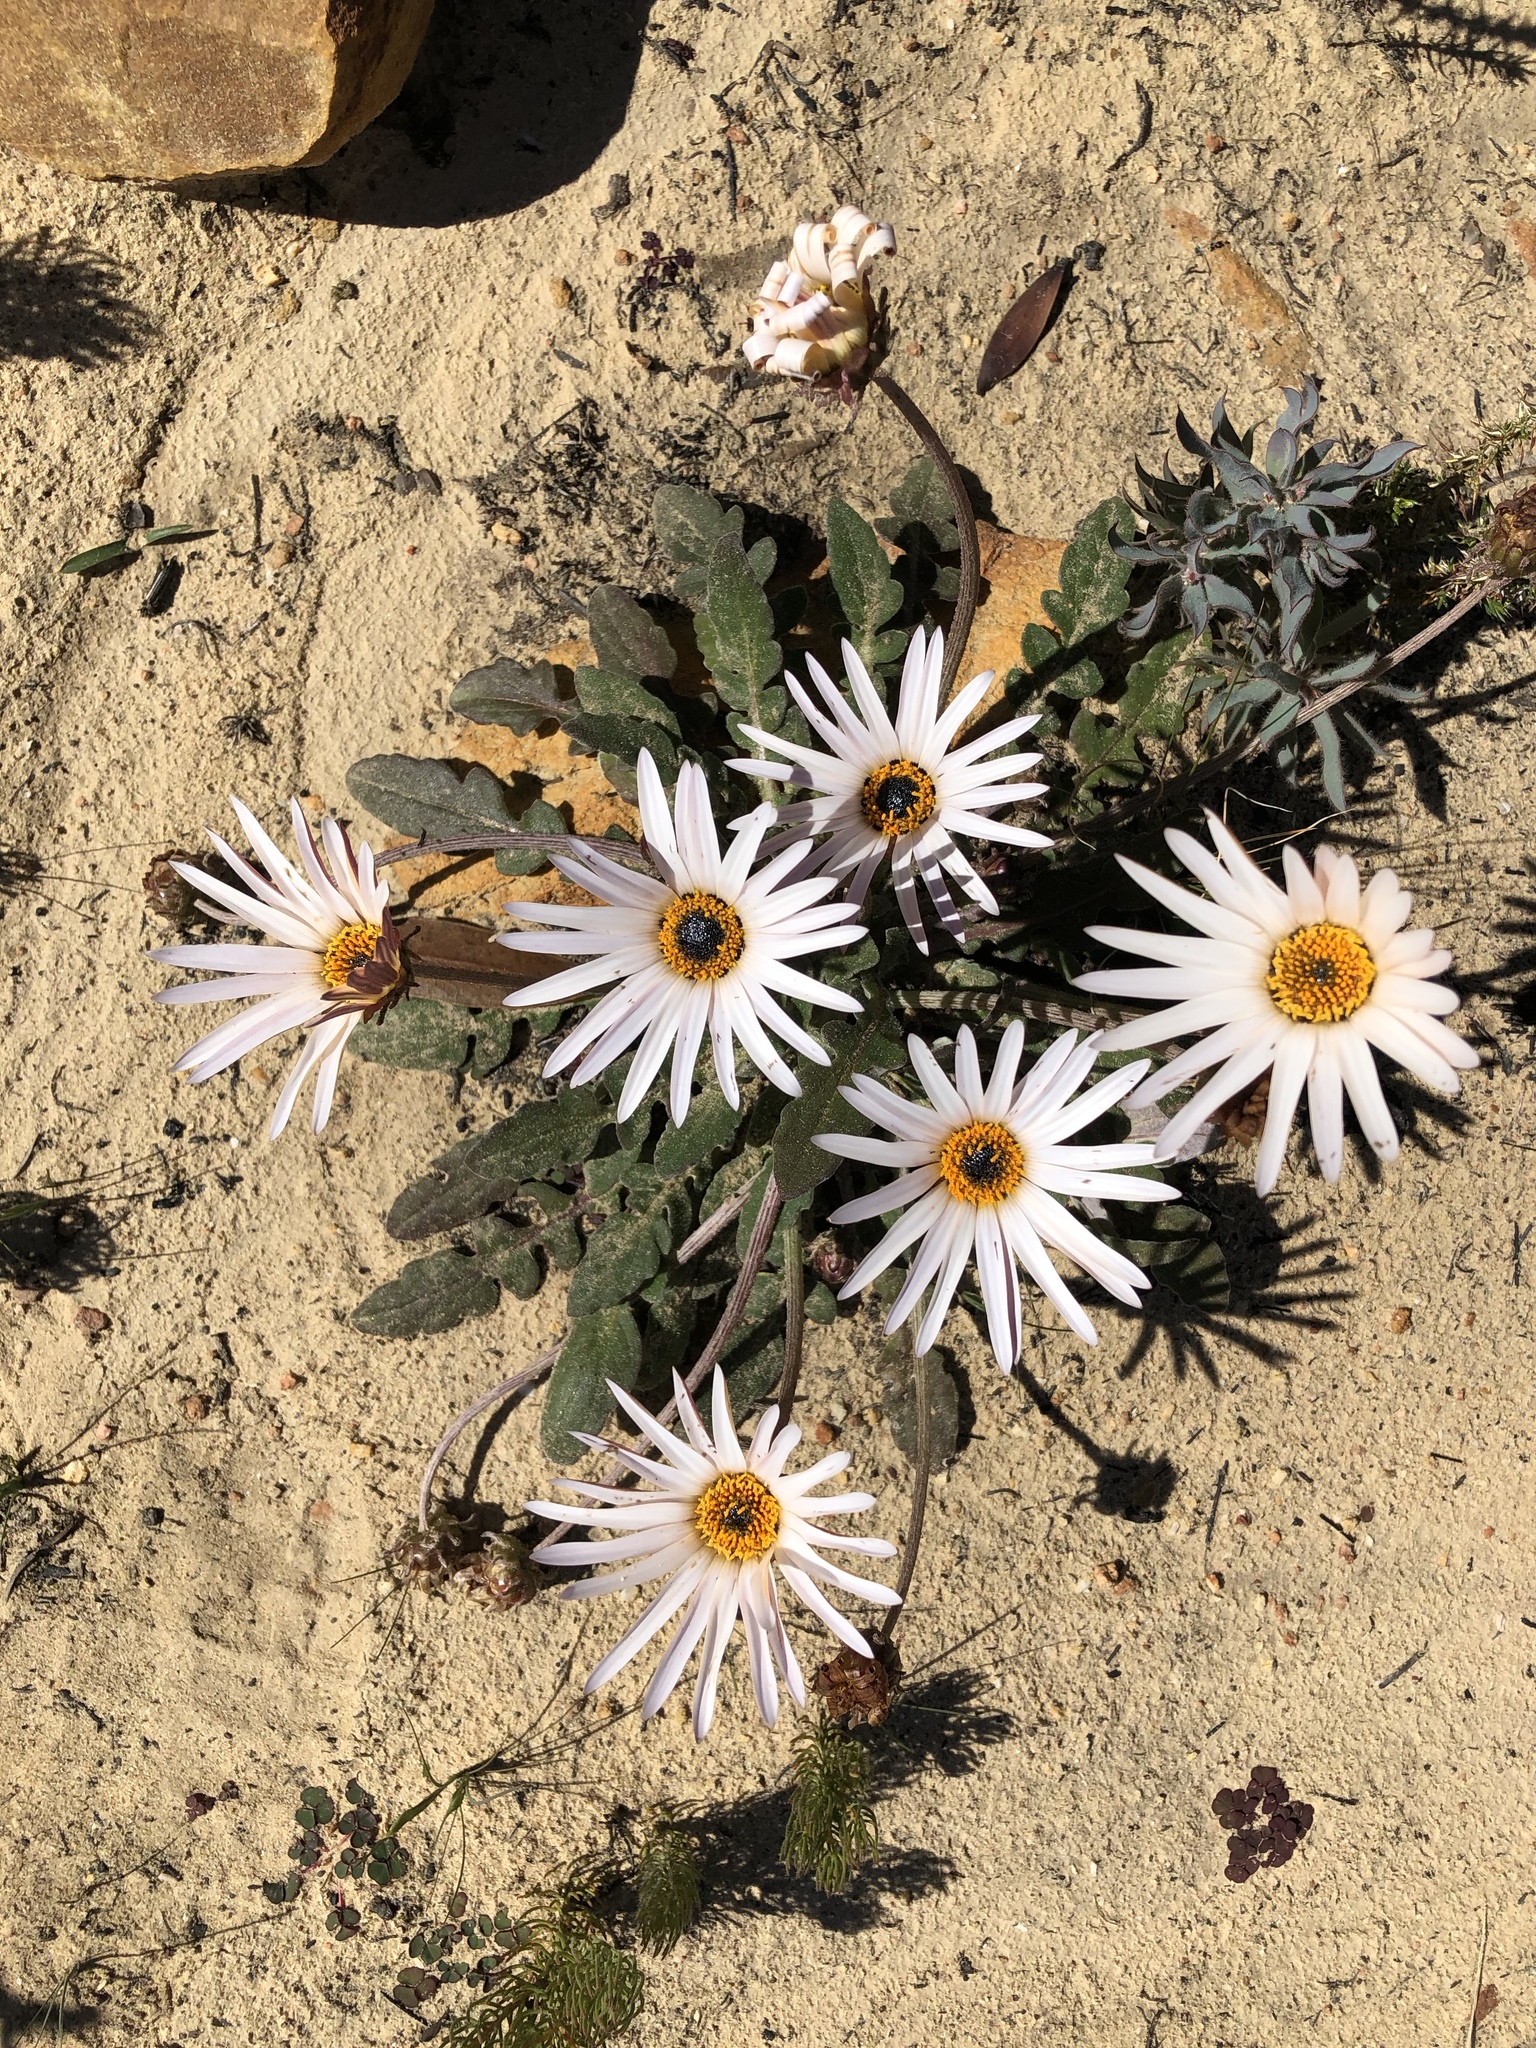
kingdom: Plantae
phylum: Tracheophyta
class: Magnoliopsida
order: Asterales
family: Asteraceae
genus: Arctotis
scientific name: Arctotis acaulis
